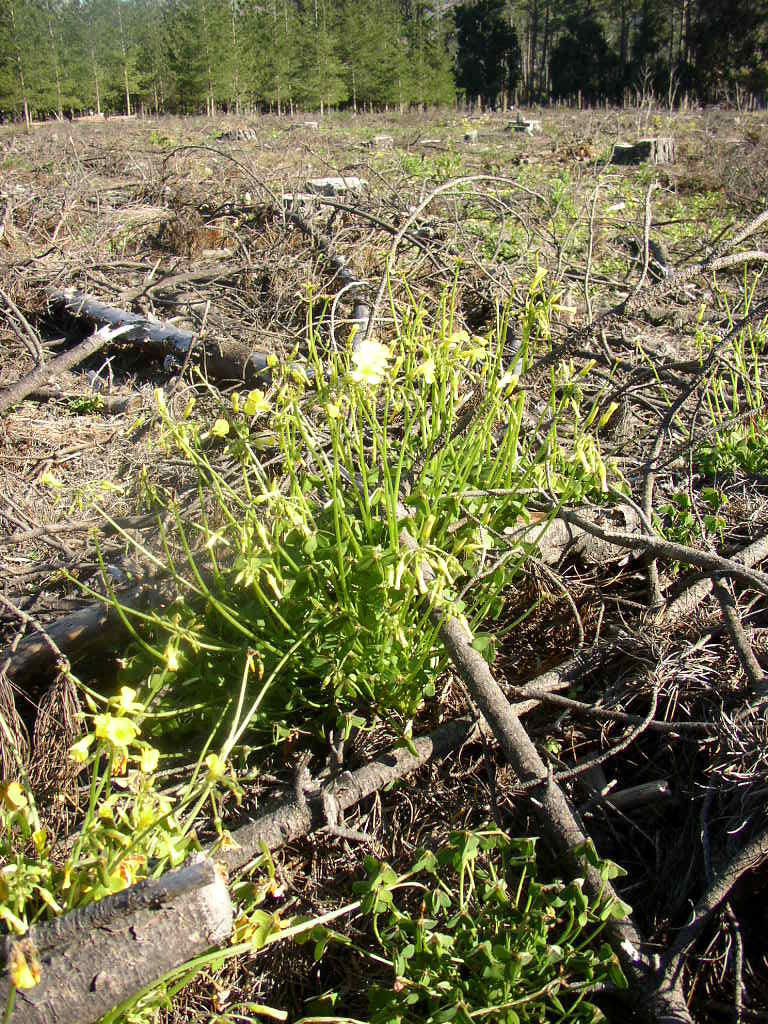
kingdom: Plantae
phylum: Tracheophyta
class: Magnoliopsida
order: Oxalidales
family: Oxalidaceae
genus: Oxalis
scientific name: Oxalis pes-caprae
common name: Bermuda-buttercup
